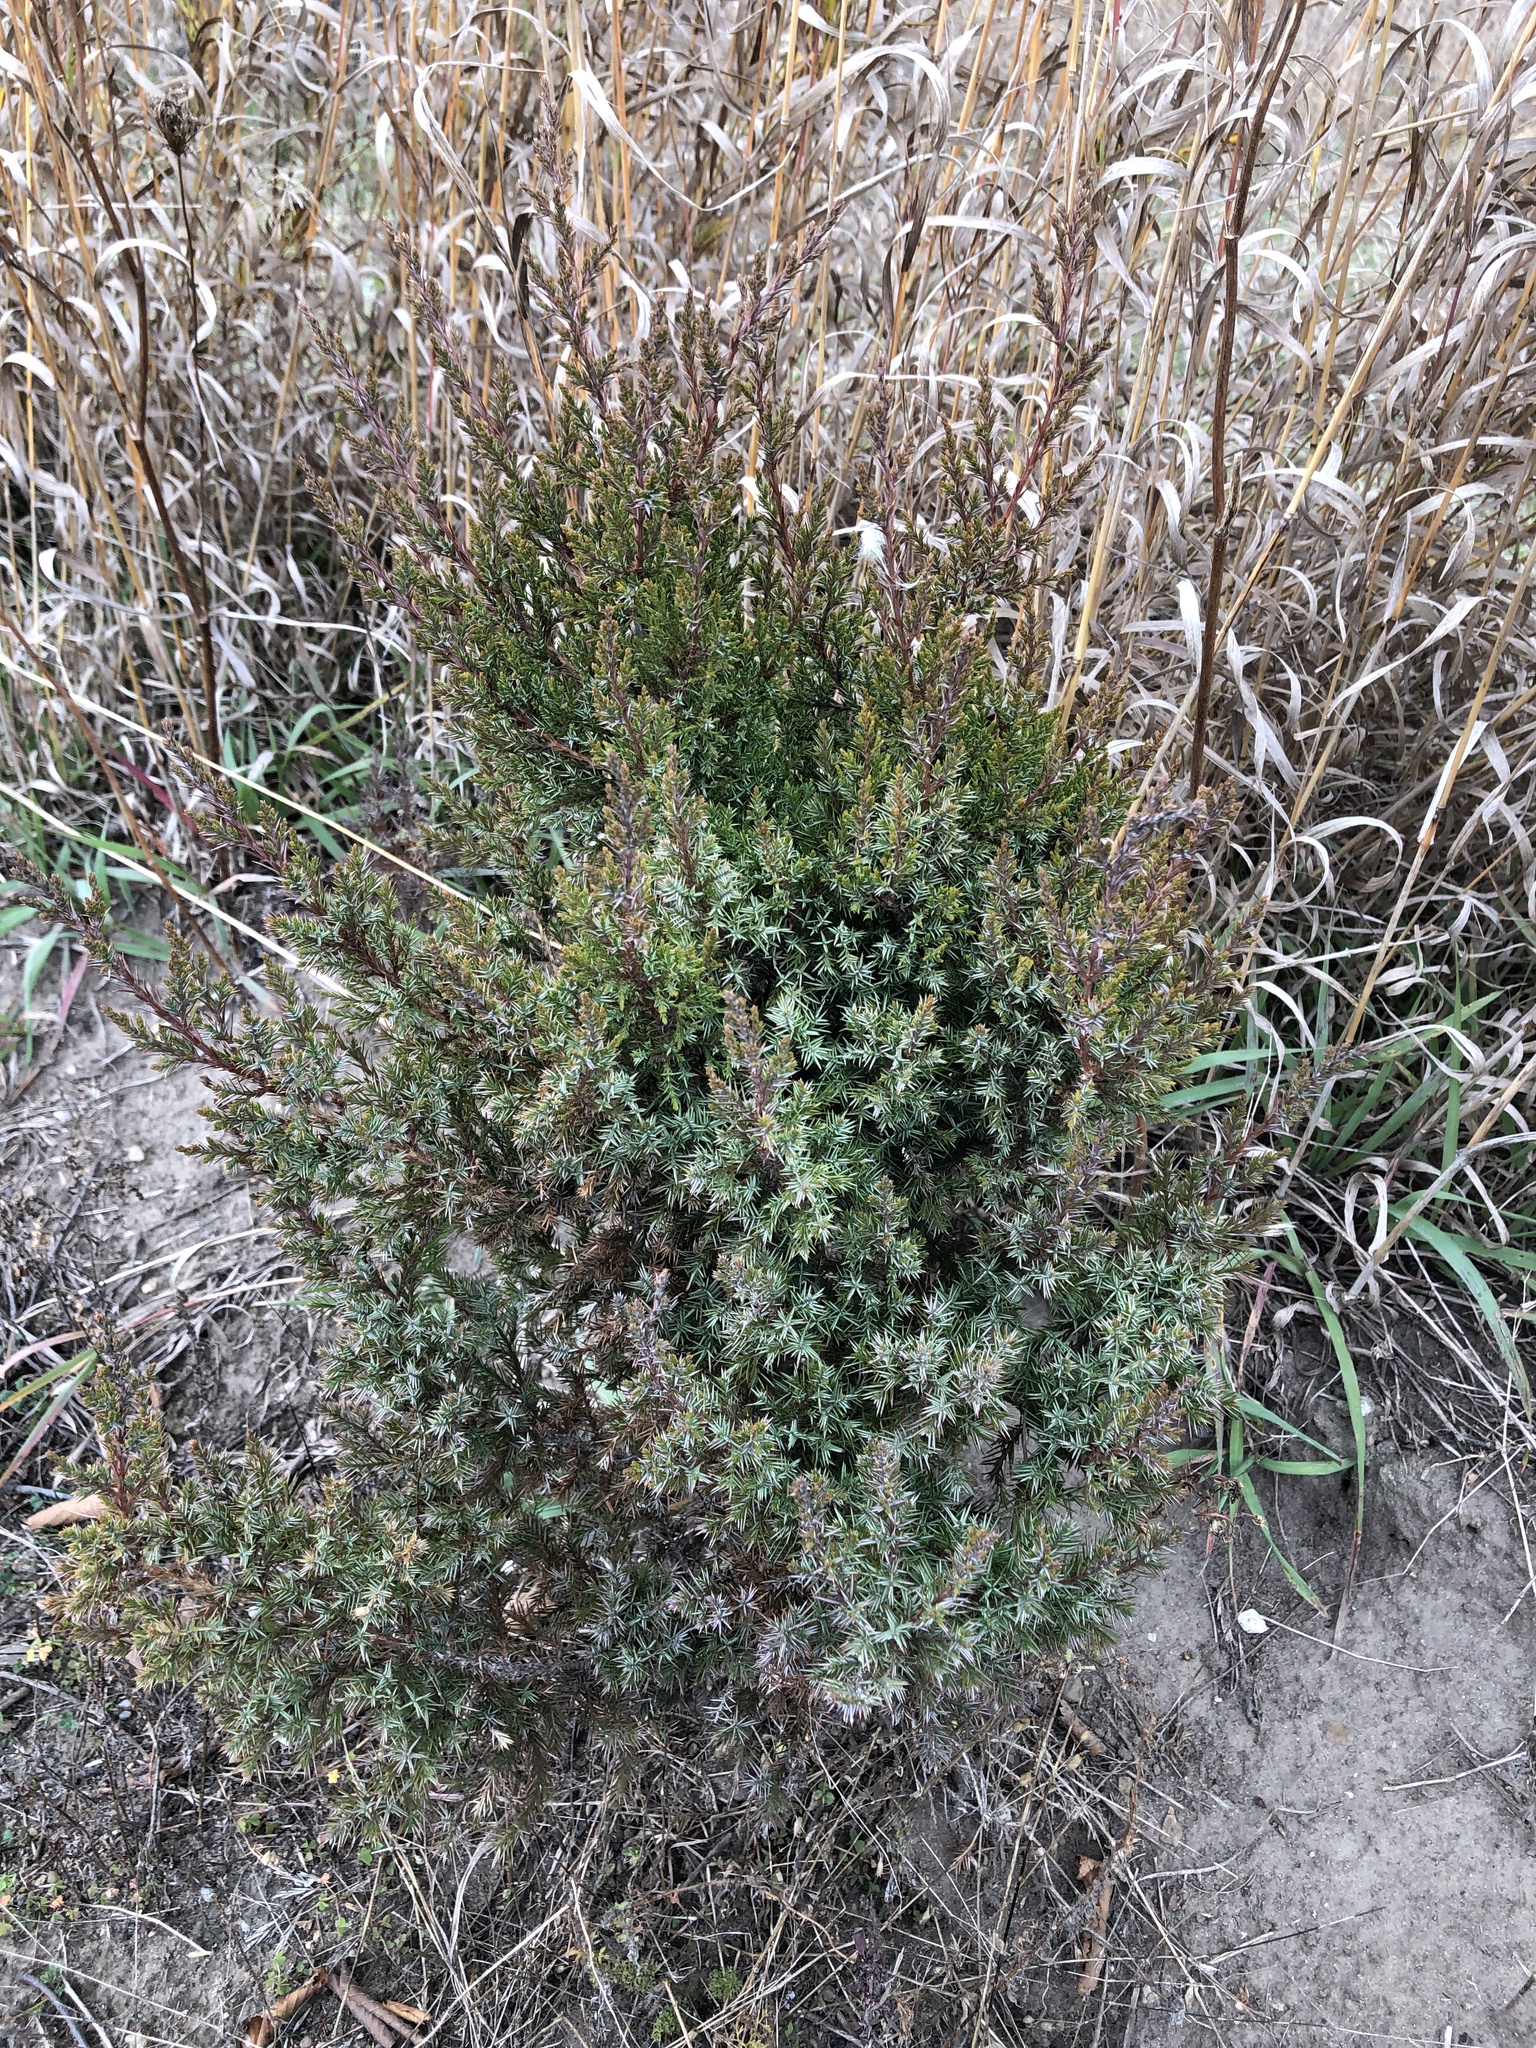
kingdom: Plantae
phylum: Tracheophyta
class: Pinopsida
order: Pinales
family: Cupressaceae
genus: Juniperus
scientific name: Juniperus virginiana
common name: Red juniper
